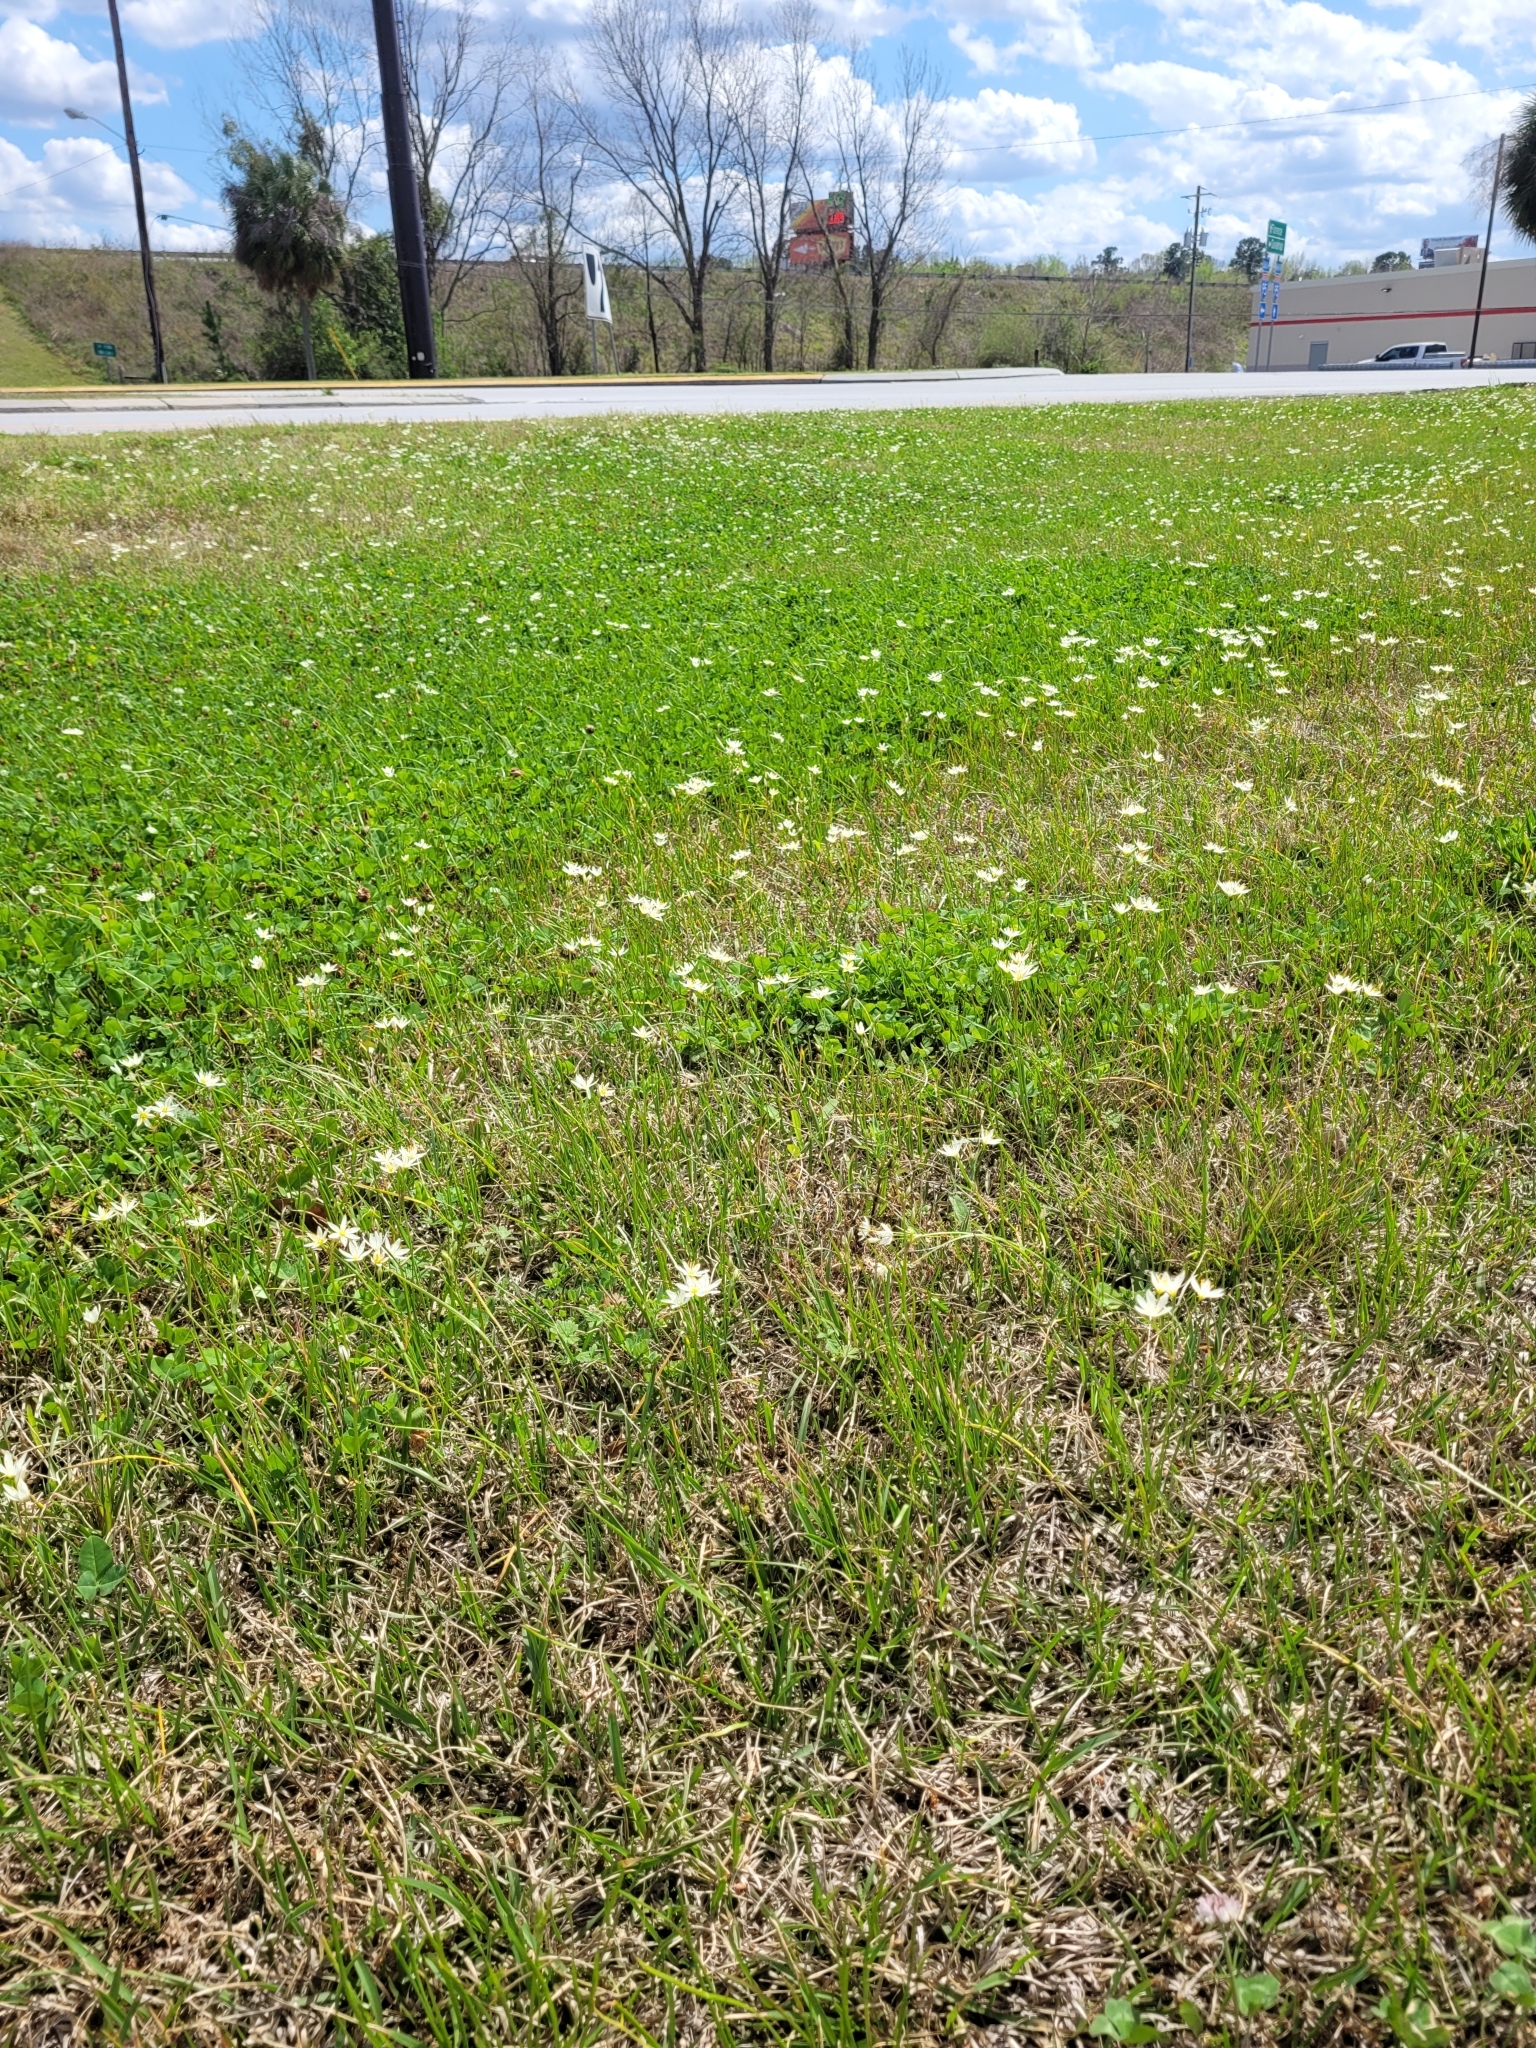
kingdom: Plantae
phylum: Tracheophyta
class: Liliopsida
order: Asparagales
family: Amaryllidaceae
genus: Nothoscordum
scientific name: Nothoscordum bivalve
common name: Crow-poison
